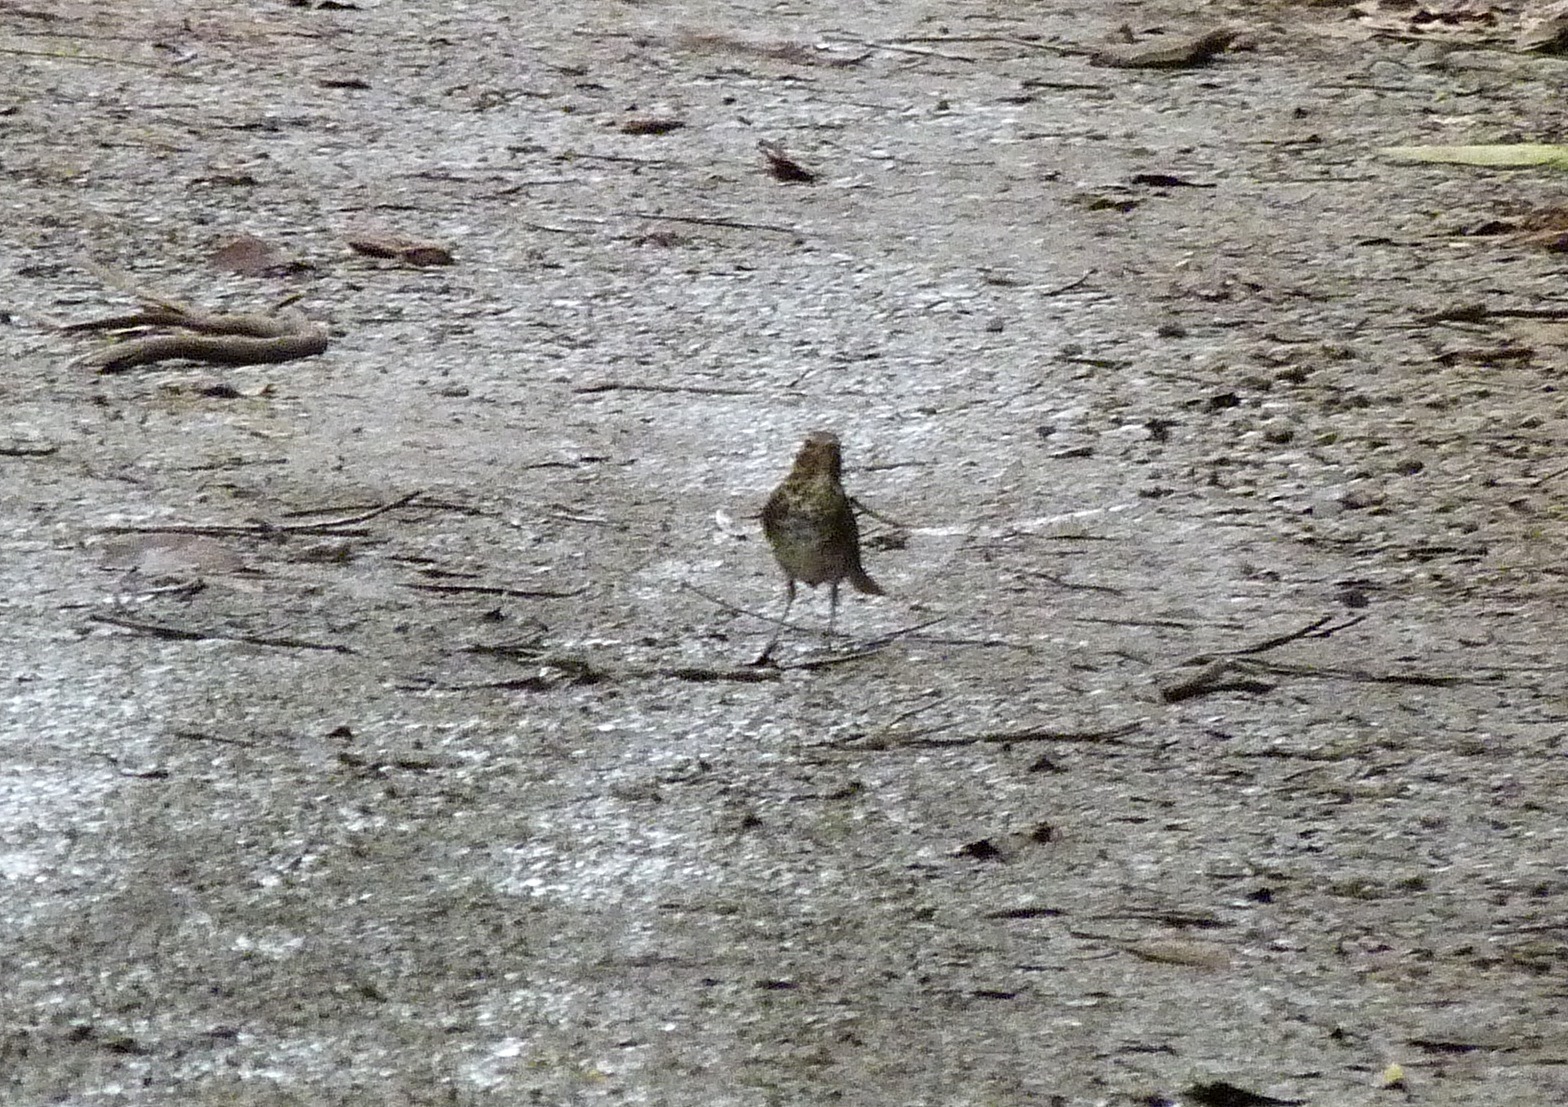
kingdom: Animalia
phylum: Chordata
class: Aves
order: Passeriformes
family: Turdidae
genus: Turdus
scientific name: Turdus grayi
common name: Clay-colored thrush
